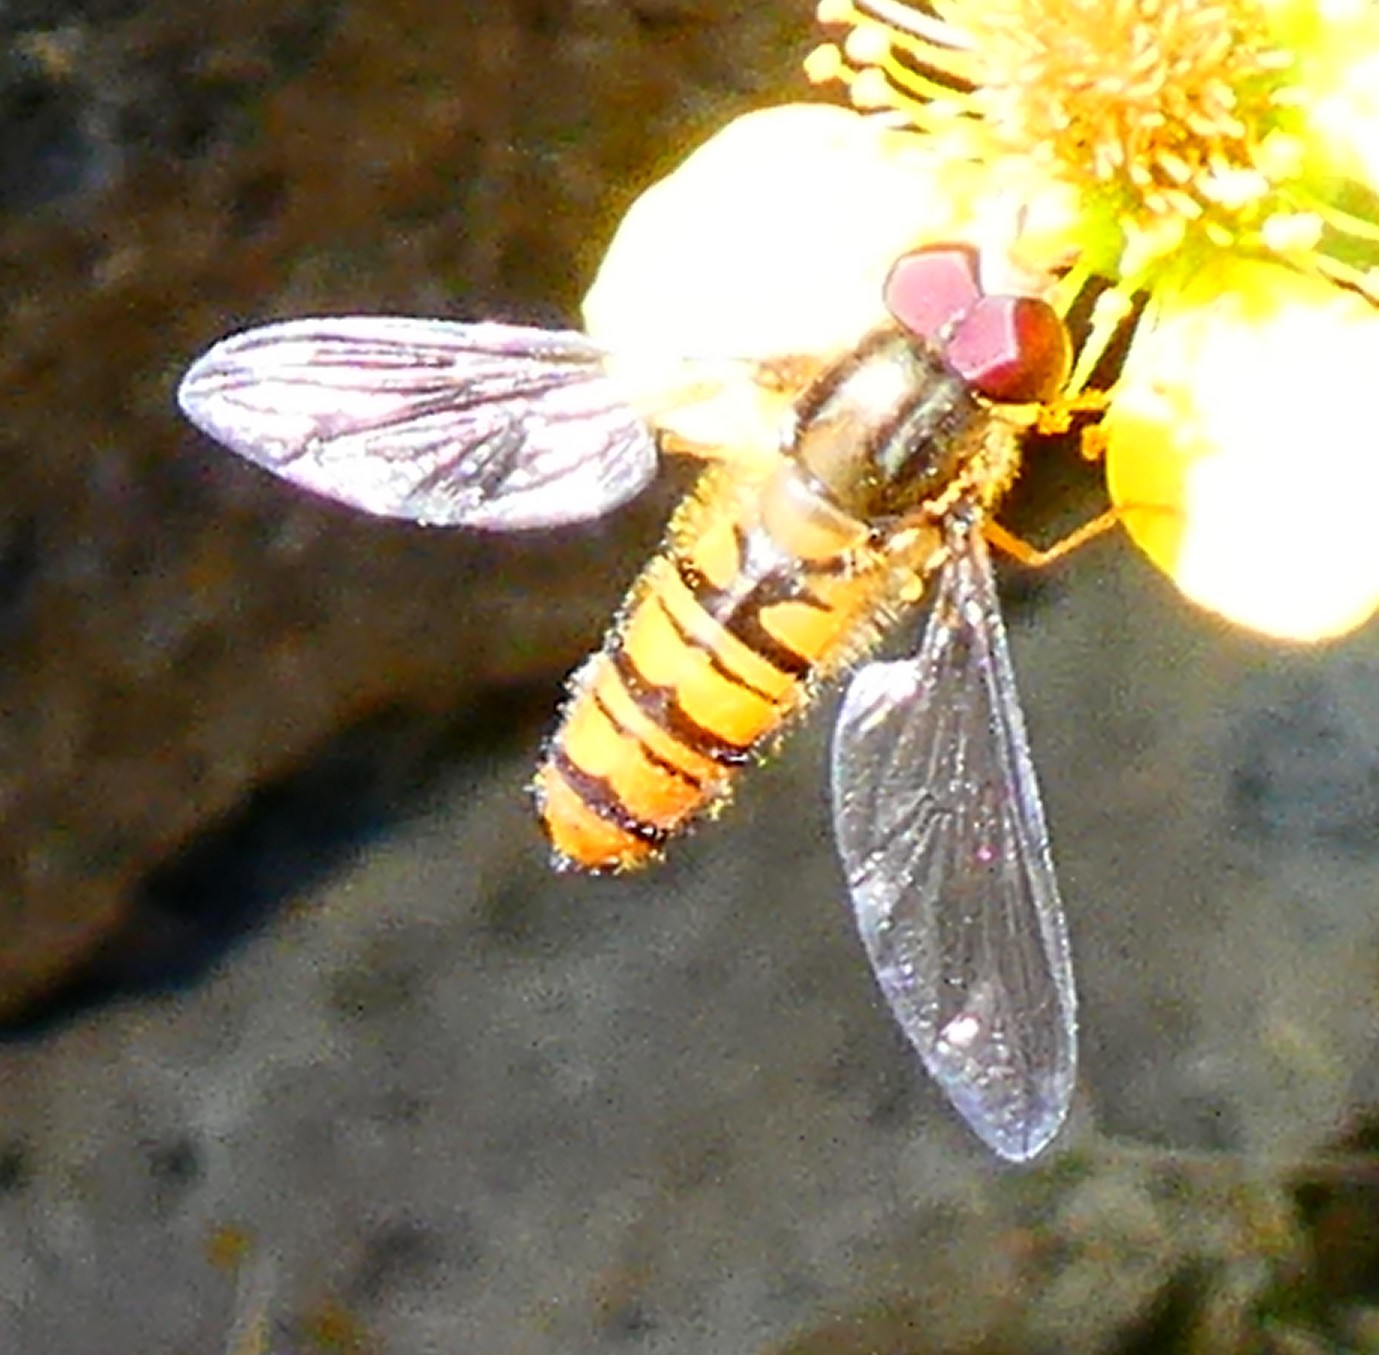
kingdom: Animalia
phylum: Arthropoda
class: Insecta
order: Diptera
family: Syrphidae
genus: Episyrphus
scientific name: Episyrphus balteatus
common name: Marmalade hoverfly
